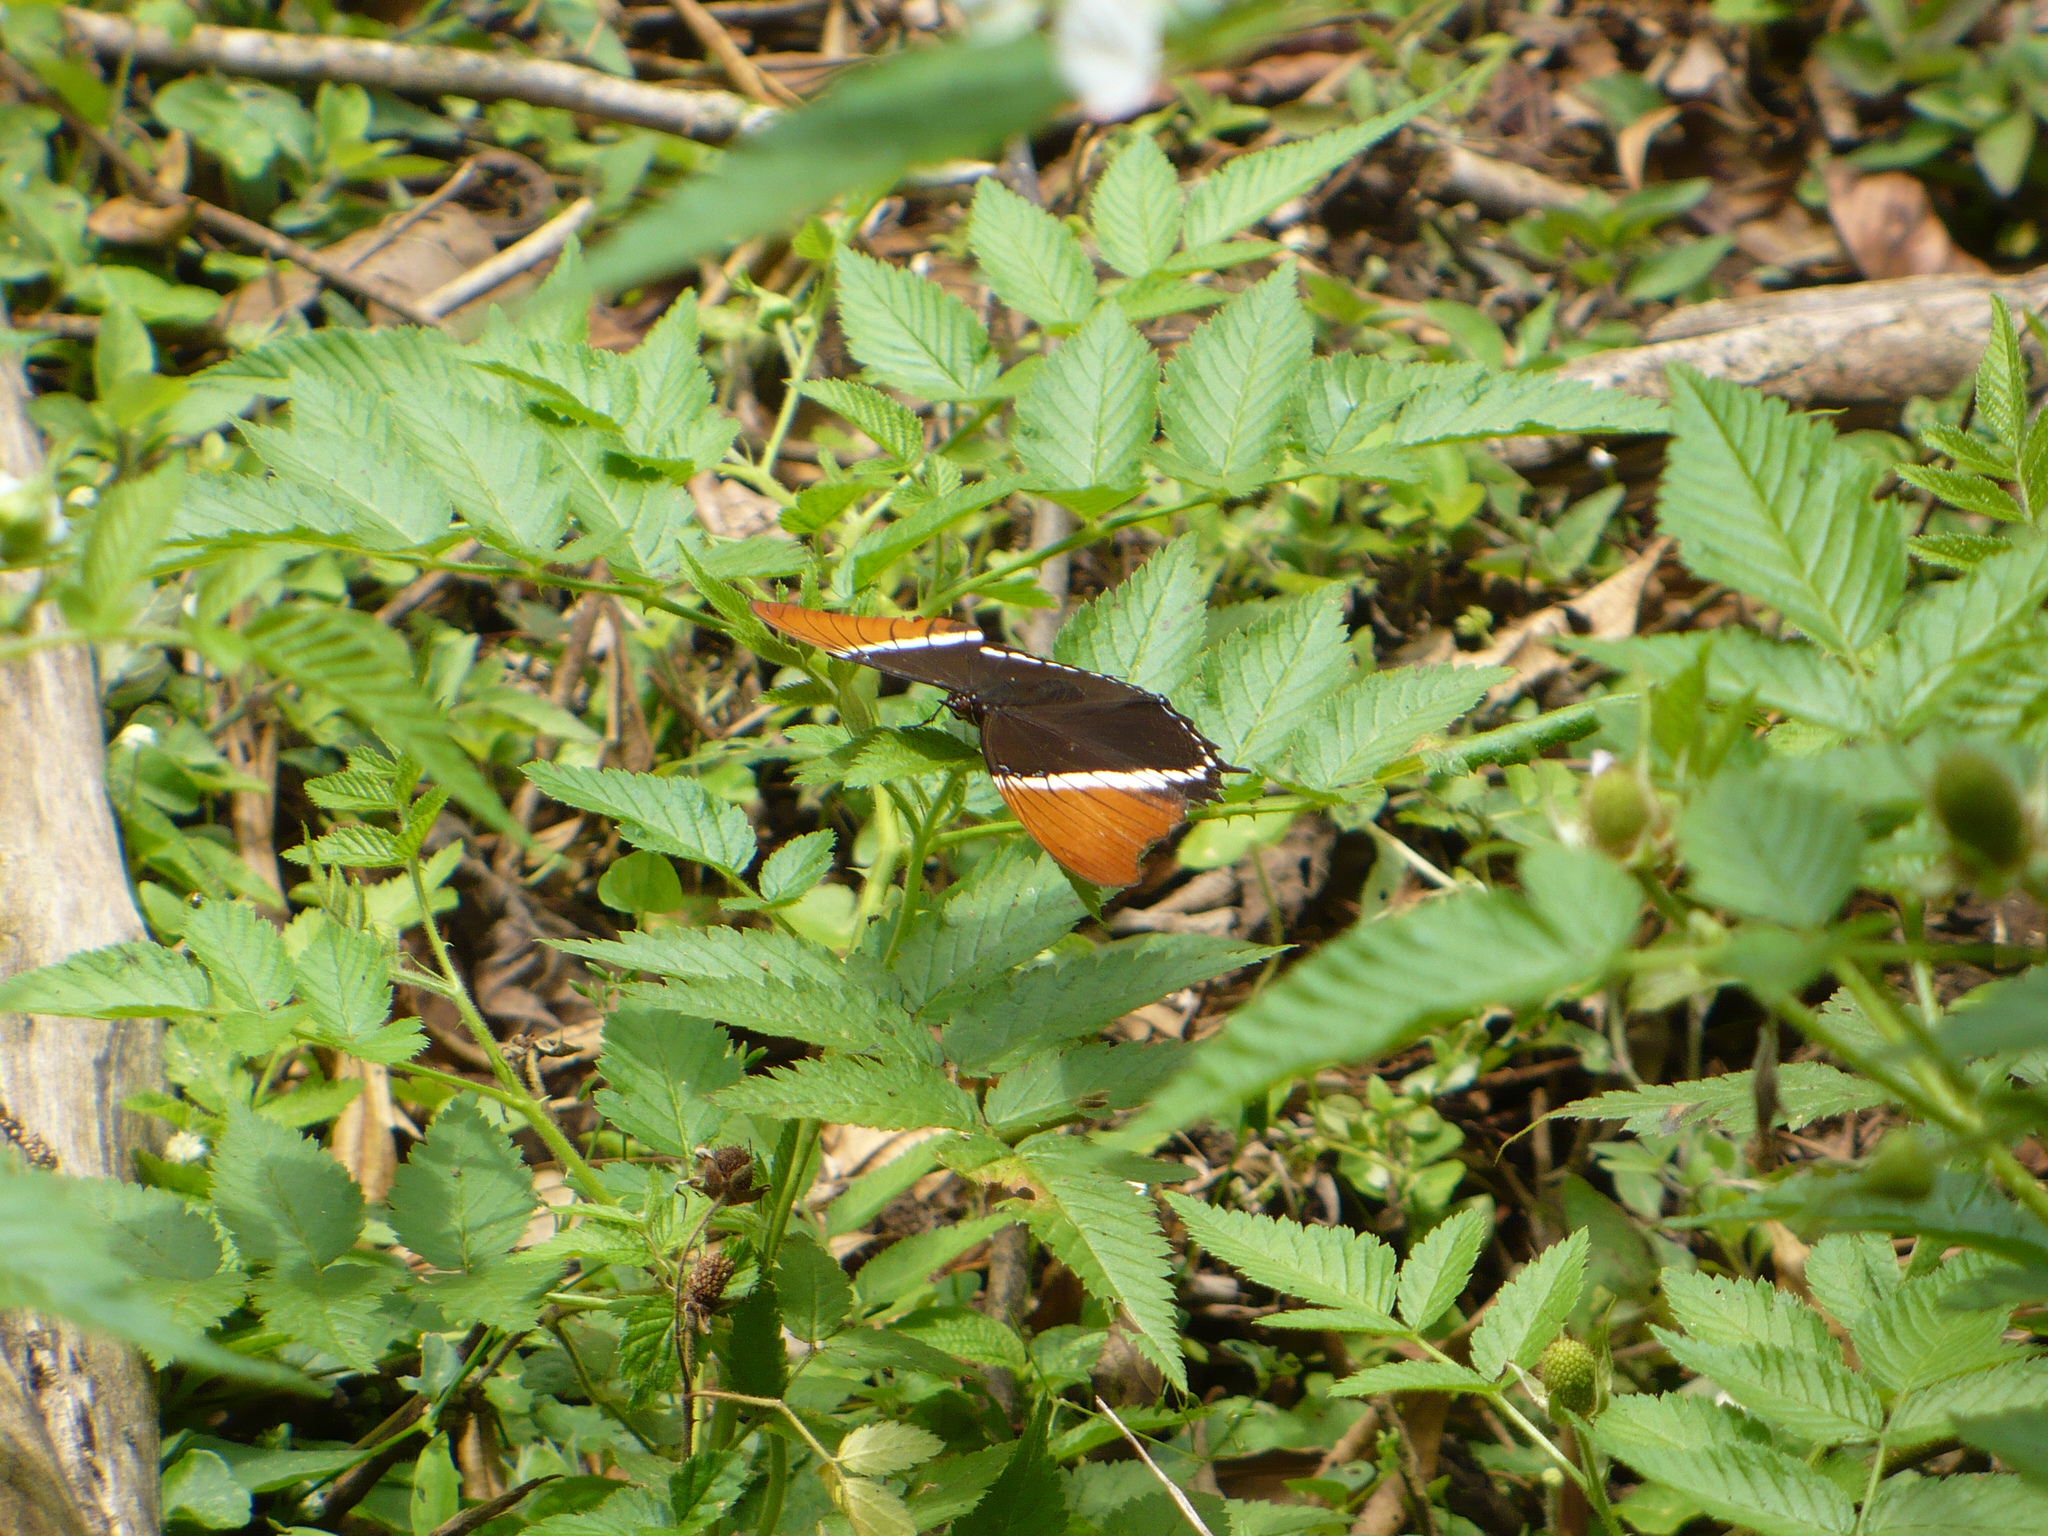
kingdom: Animalia
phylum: Arthropoda
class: Insecta
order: Lepidoptera
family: Nymphalidae
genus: Siproeta
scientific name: Siproeta epaphus
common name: Rusty-tipped page
